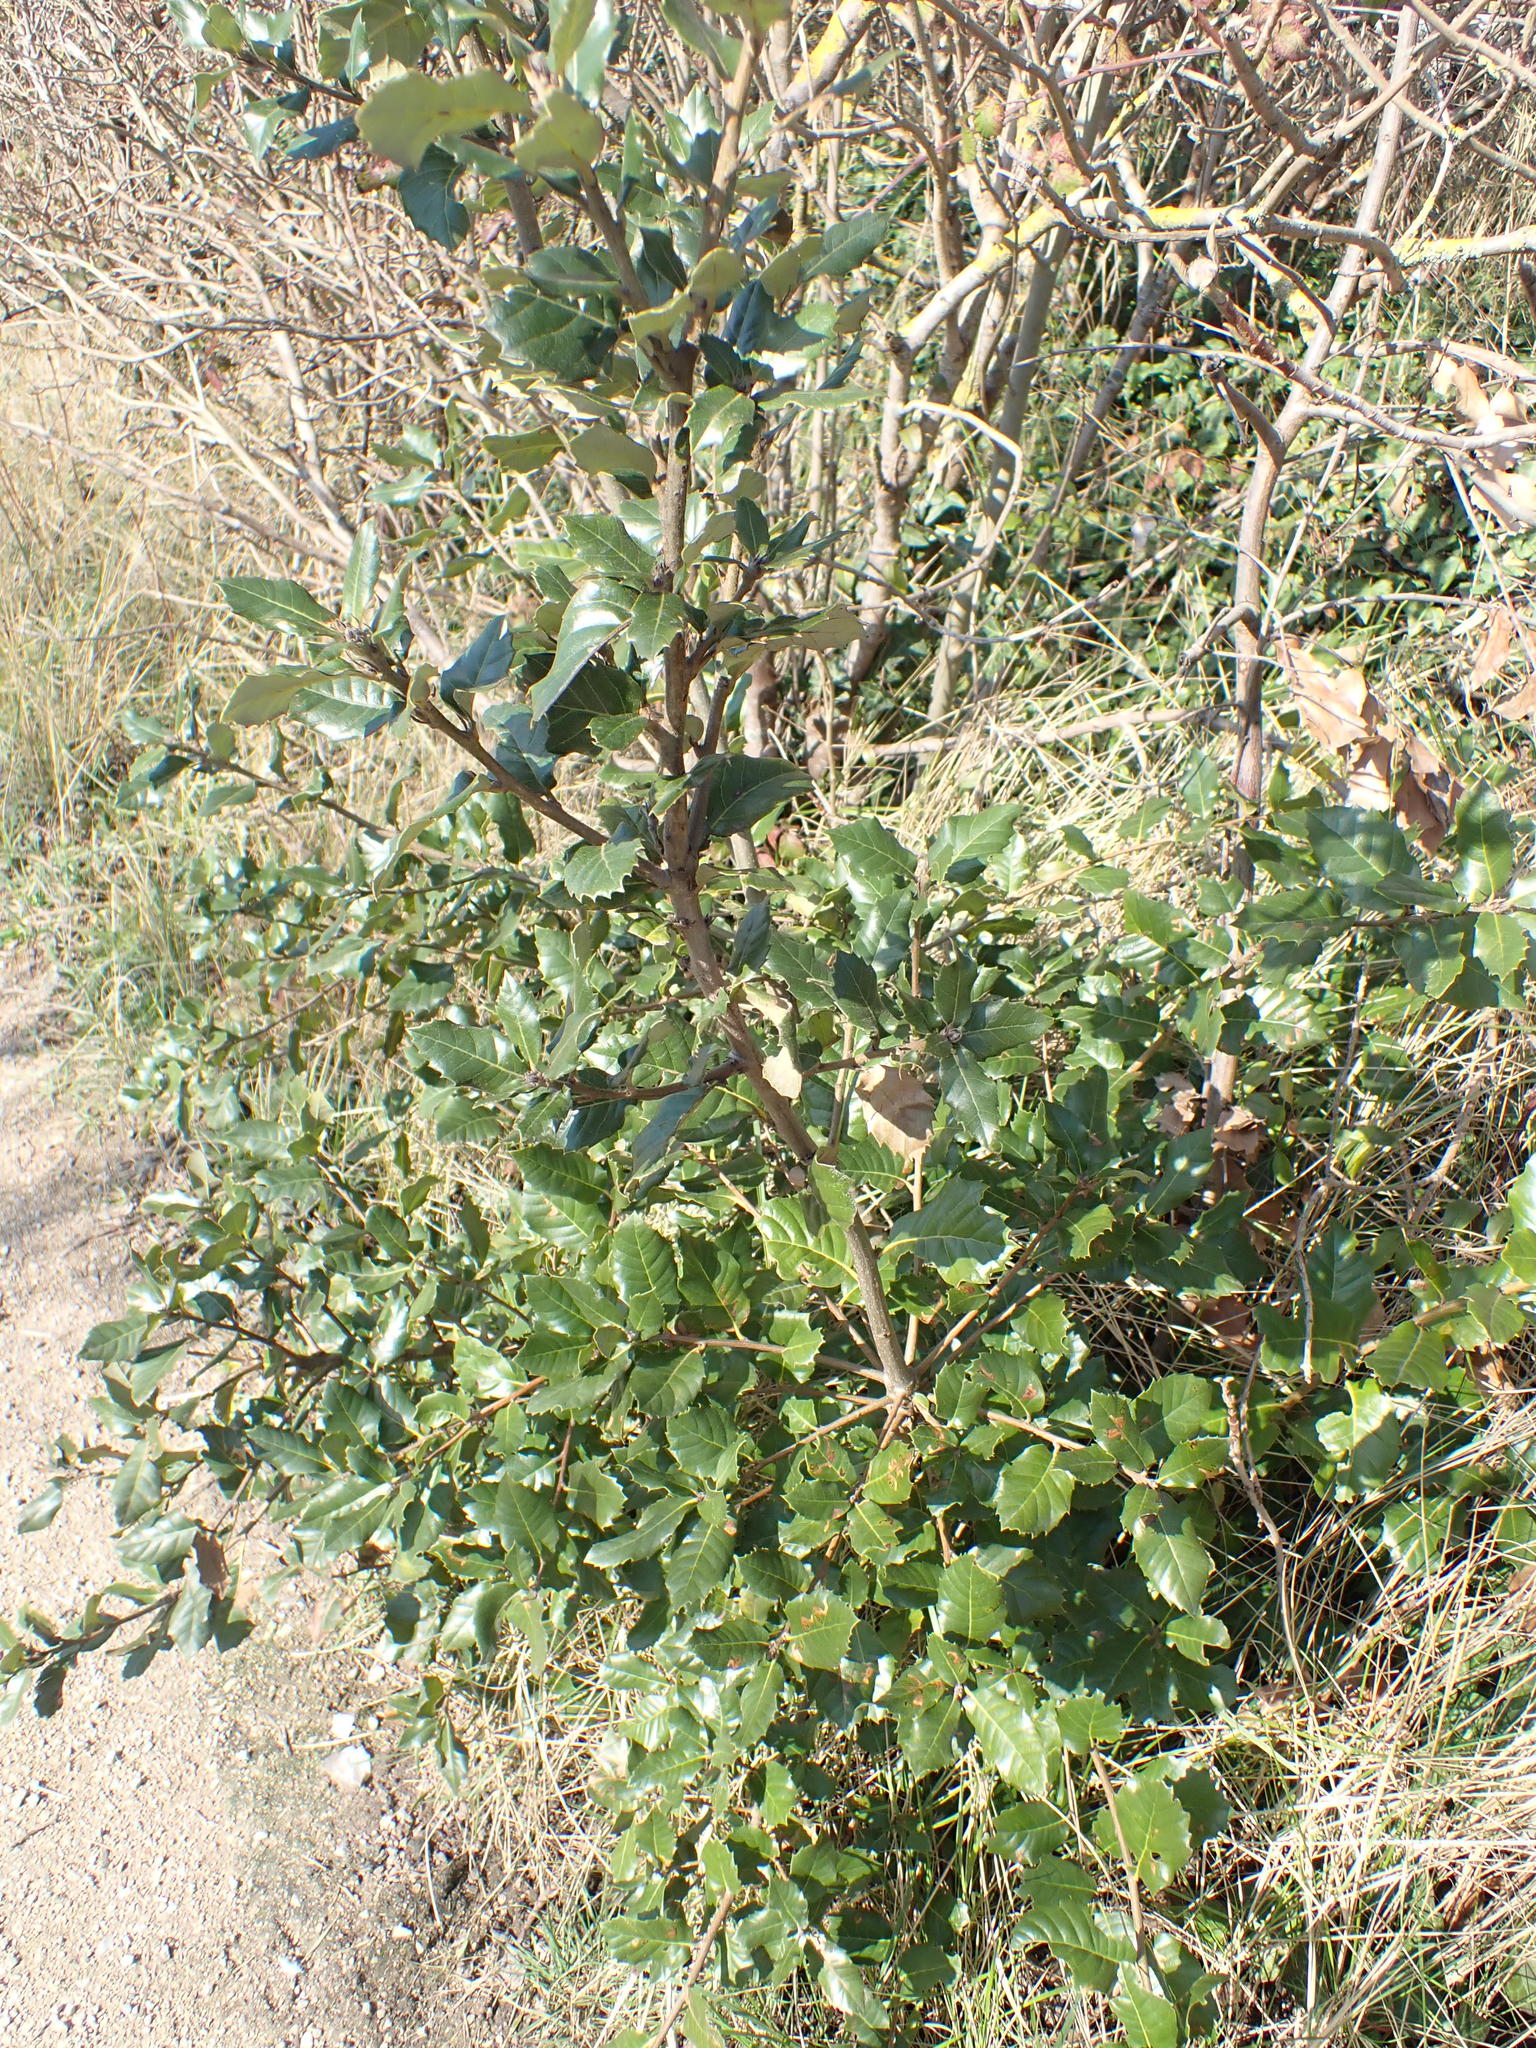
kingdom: Plantae
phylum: Tracheophyta
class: Magnoliopsida
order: Fagales
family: Fagaceae
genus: Quercus
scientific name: Quercus ilex
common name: Evergreen oak
